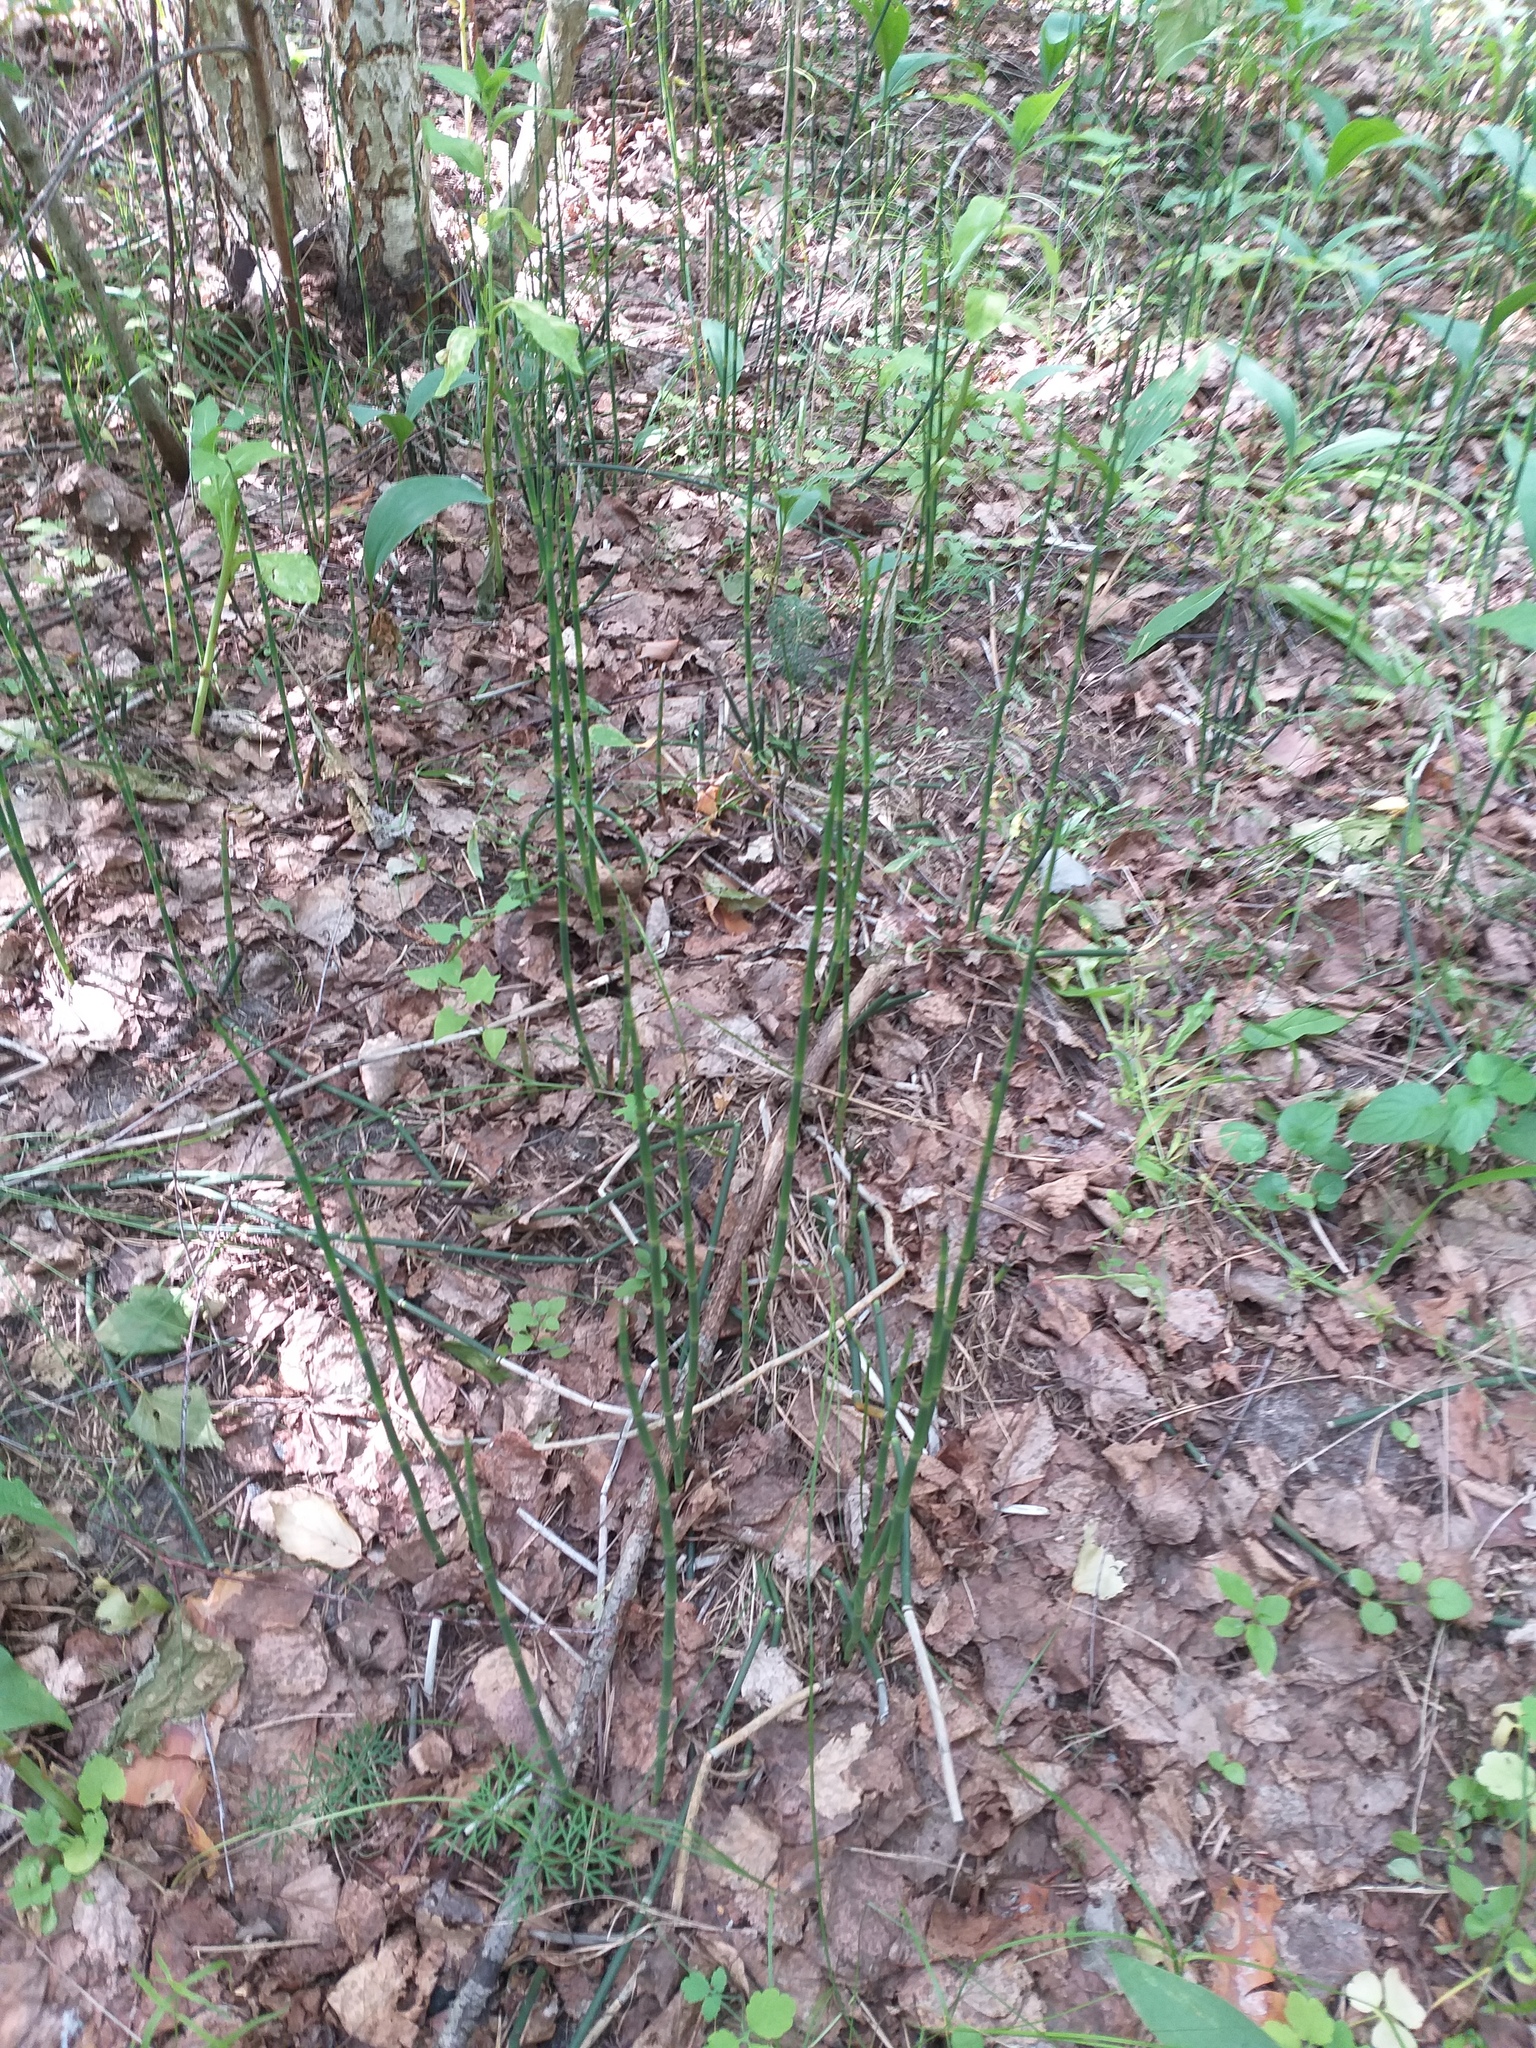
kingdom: Plantae
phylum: Tracheophyta
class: Polypodiopsida
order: Equisetales
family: Equisetaceae
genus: Equisetum
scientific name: Equisetum hyemale
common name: Rough horsetail
